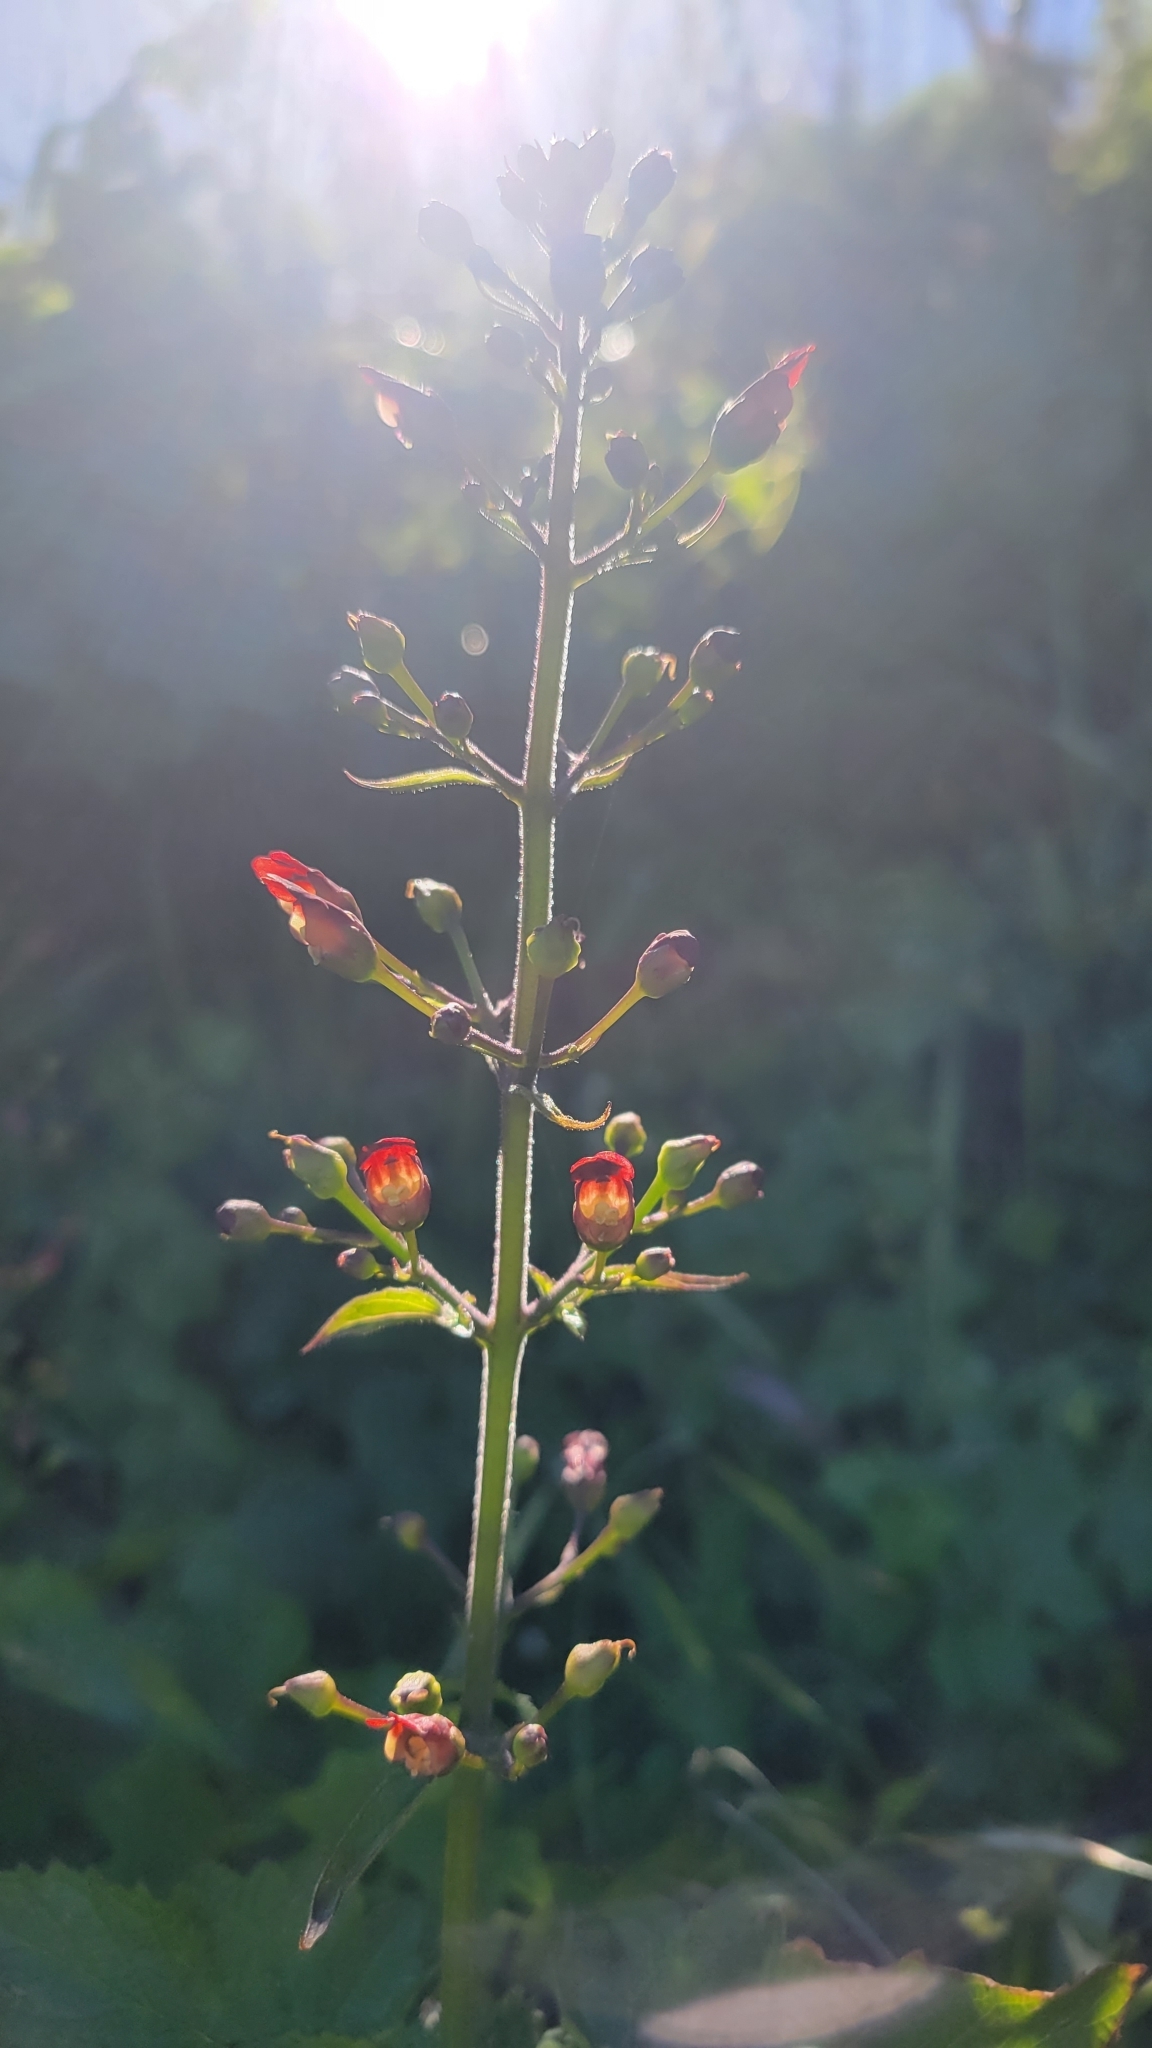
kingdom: Plantae
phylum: Tracheophyta
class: Magnoliopsida
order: Lamiales
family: Scrophulariaceae
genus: Scrophularia
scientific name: Scrophularia californica
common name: California figwort
